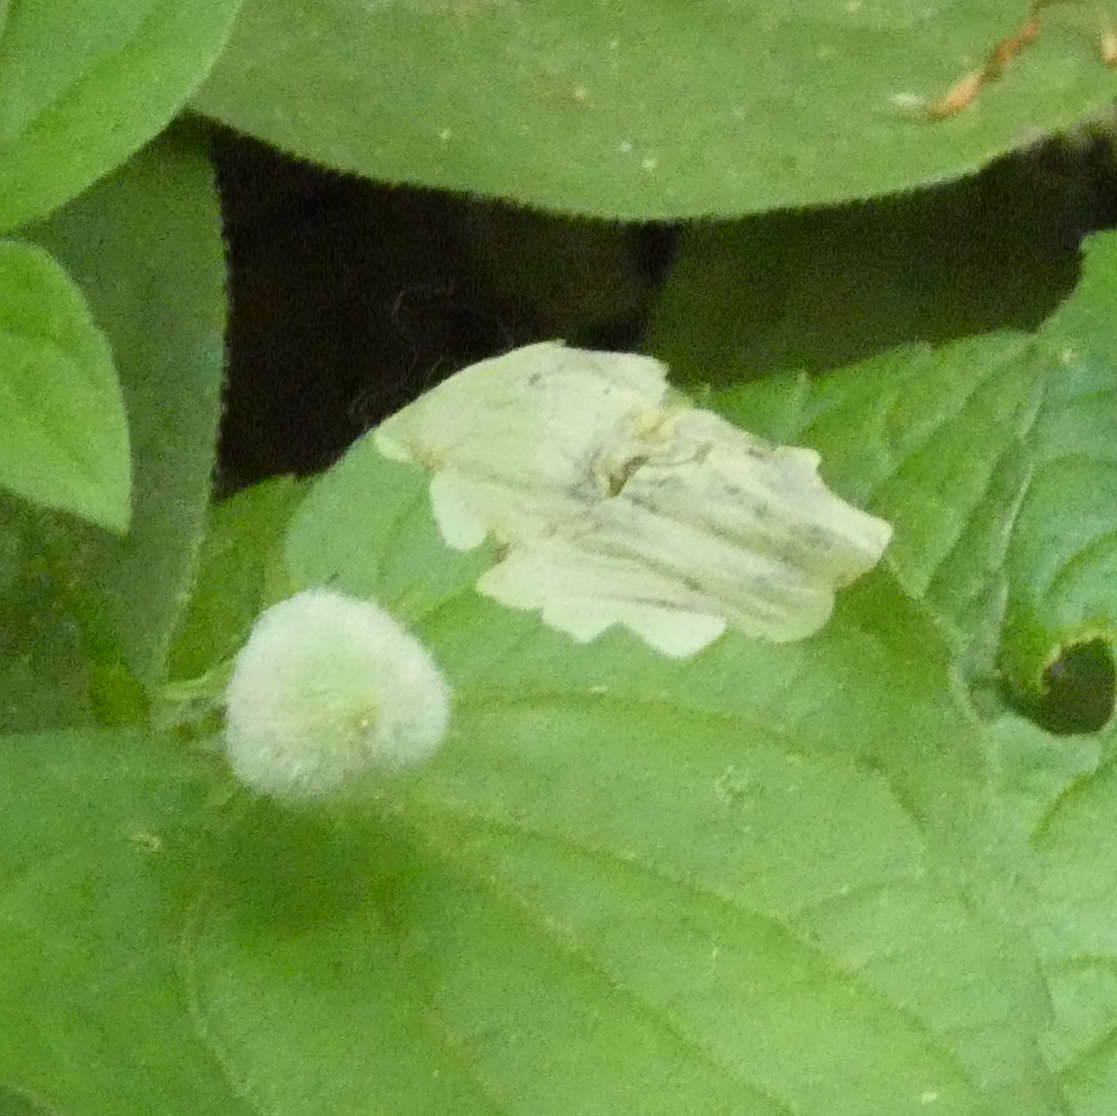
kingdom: Animalia
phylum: Arthropoda
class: Insecta
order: Hymenoptera
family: Tenthredinidae
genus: Nefusa
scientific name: Nefusa ambigua
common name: Violet leafmining sawfly
